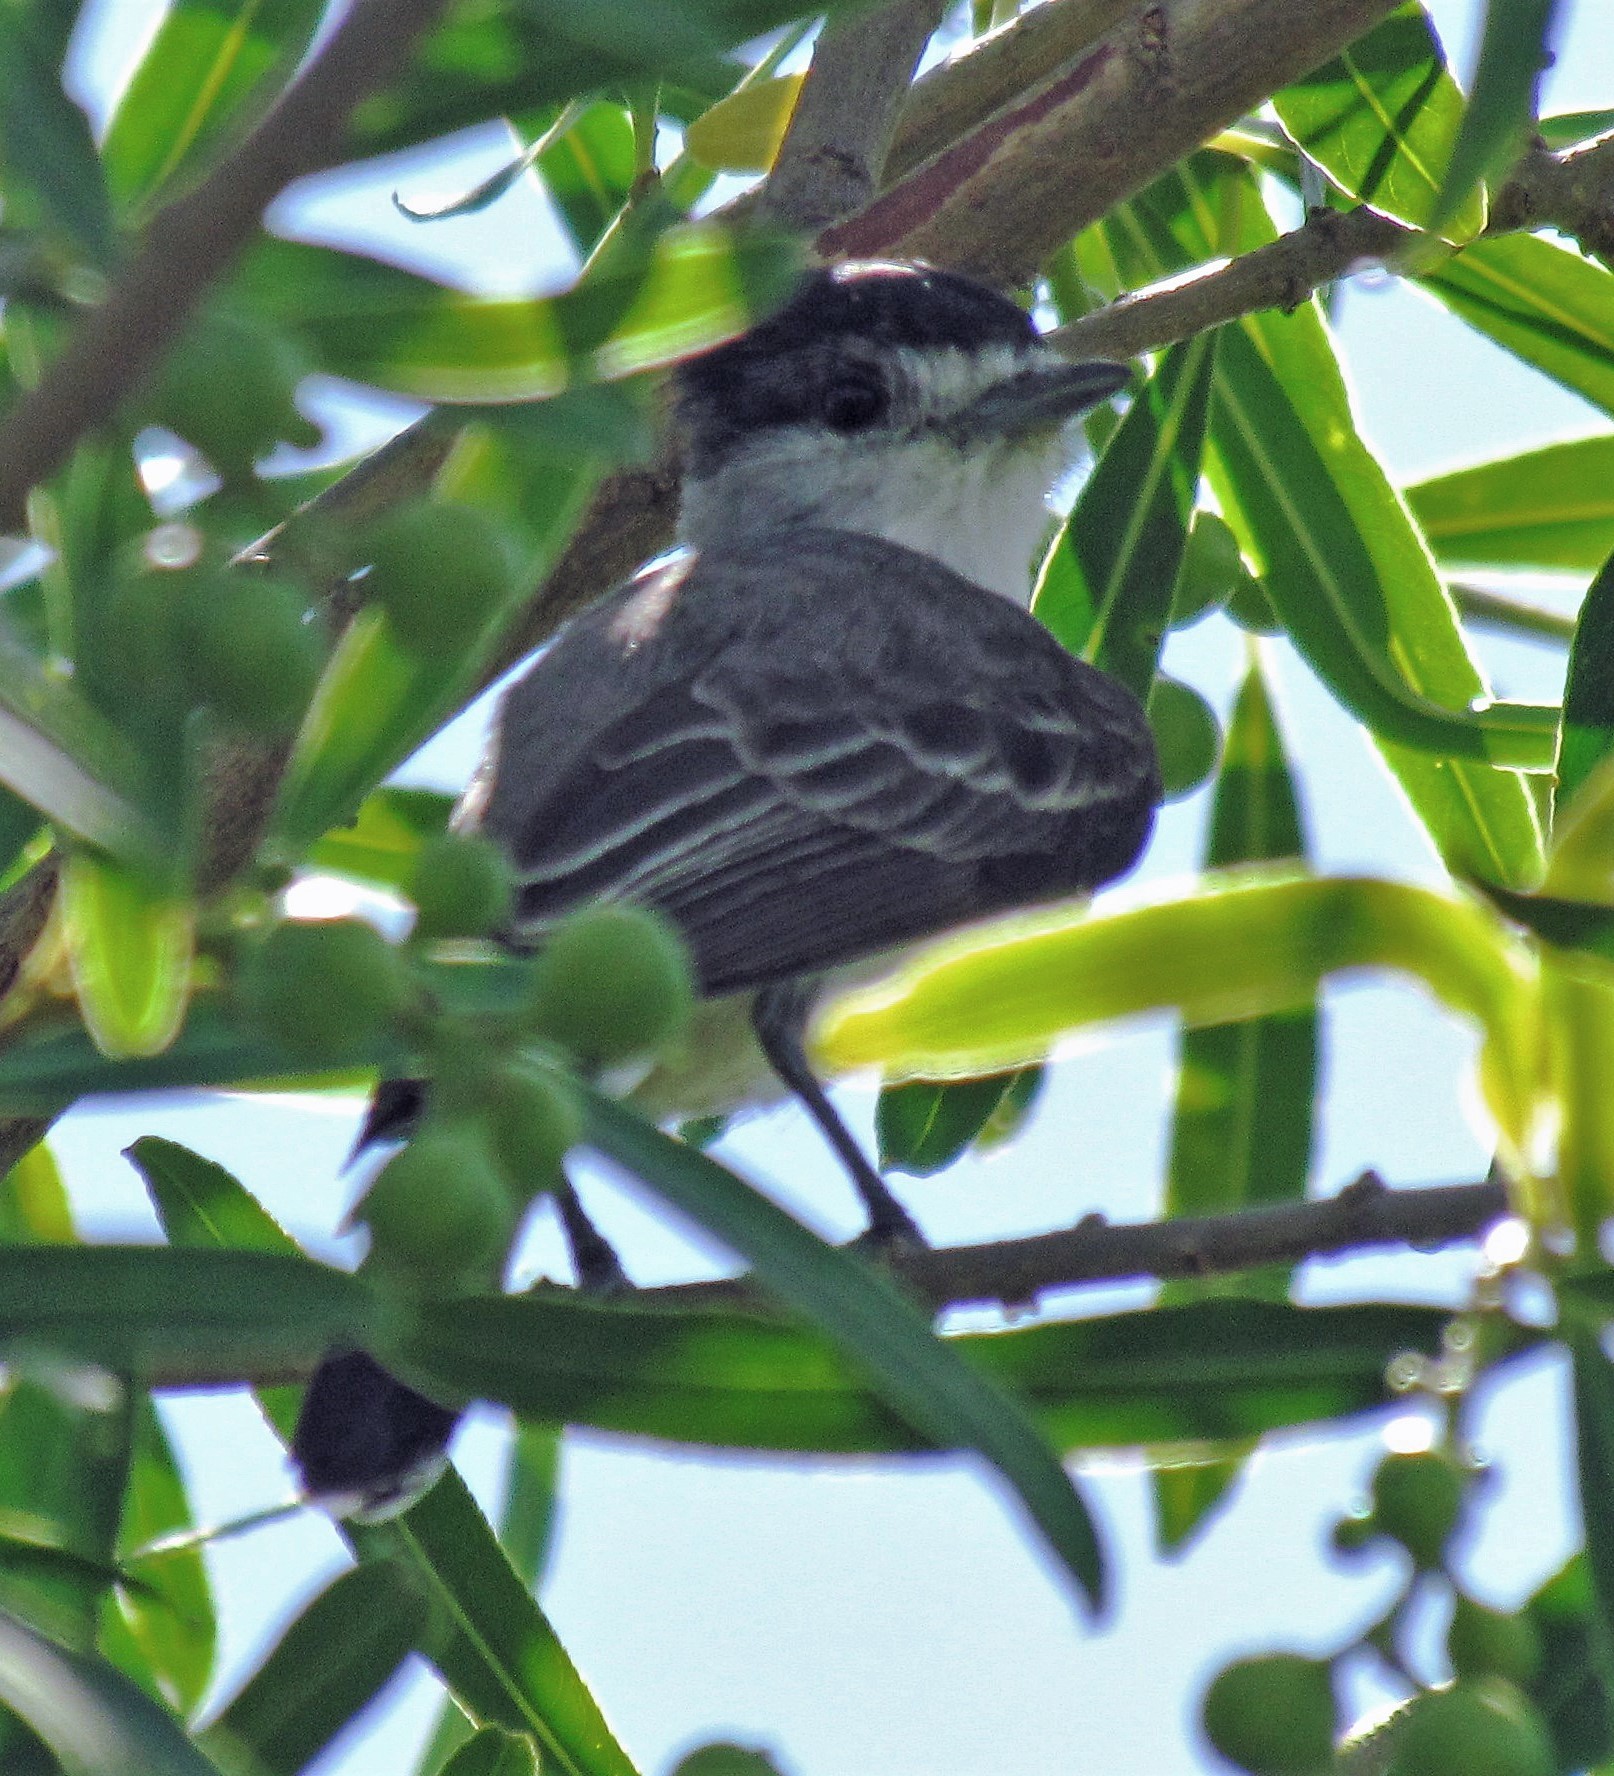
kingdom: Animalia
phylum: Chordata
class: Aves
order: Passeriformes
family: Cotingidae
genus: Xenopsaris
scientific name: Xenopsaris albinucha
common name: White-naped xenopsaris
